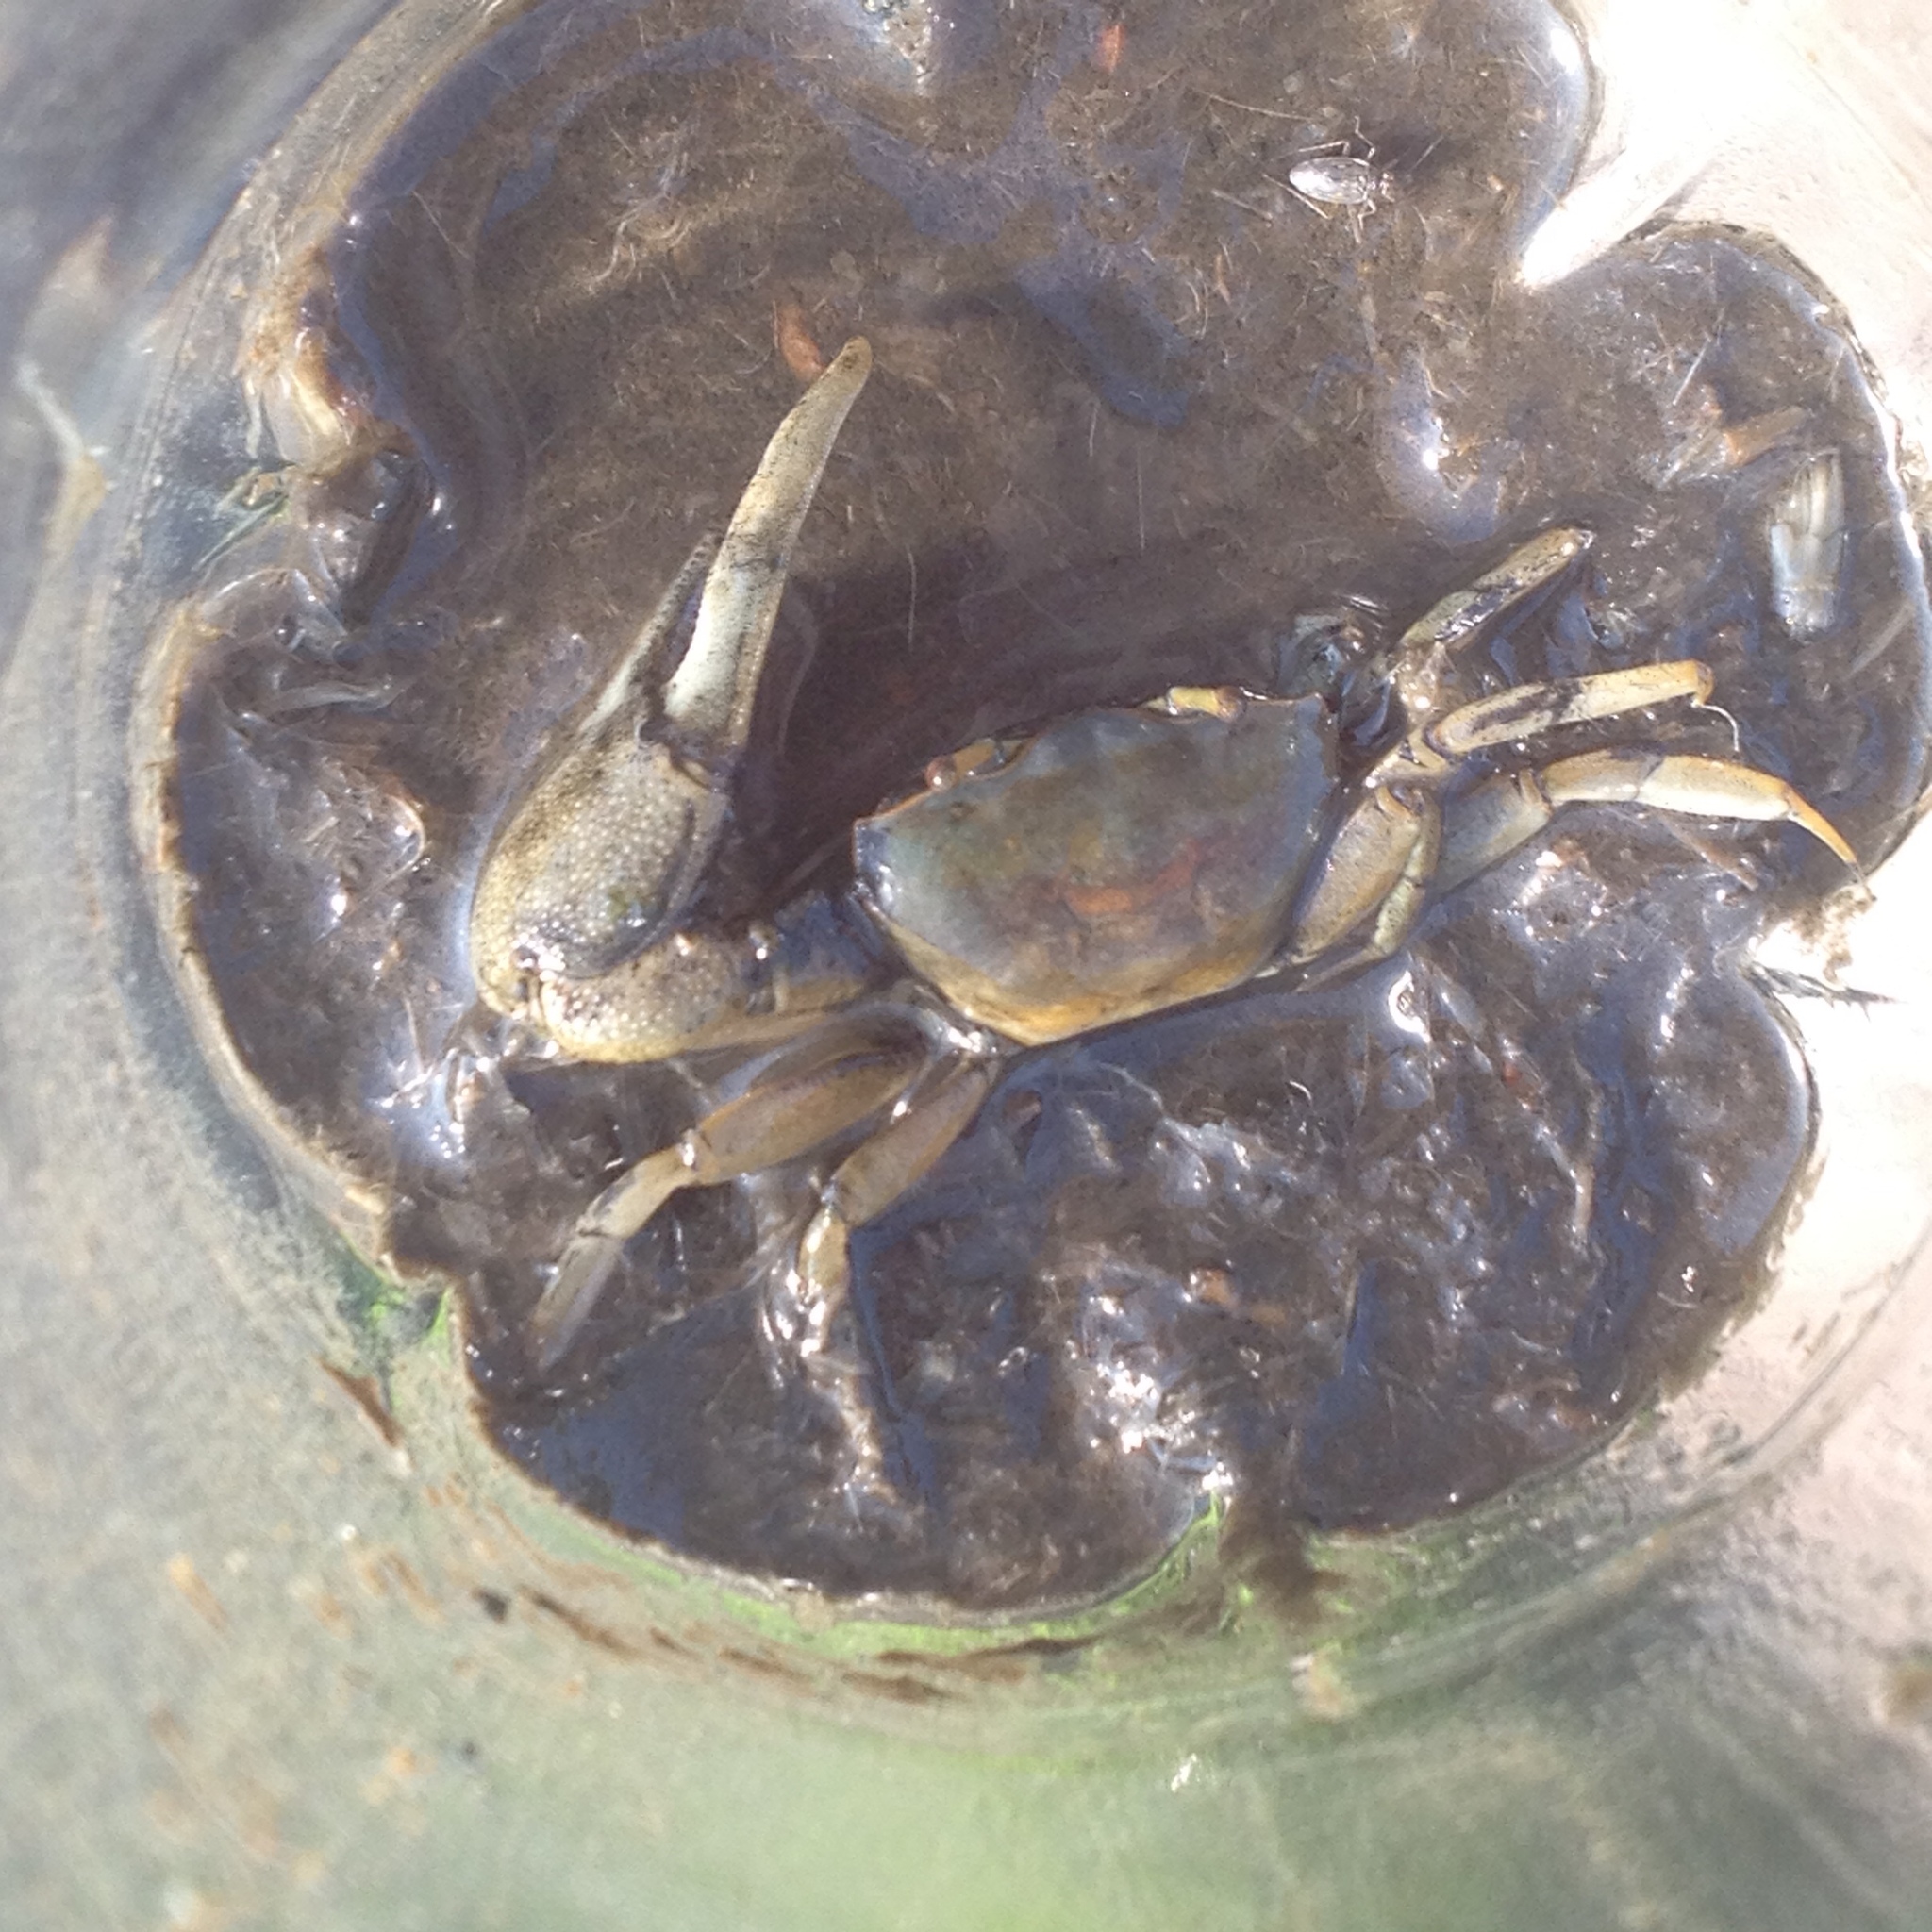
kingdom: Animalia
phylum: Arthropoda
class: Malacostraca
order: Decapoda
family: Ocypodidae
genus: Minuca
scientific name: Minuca pugnax
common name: Mud fiddler crab
